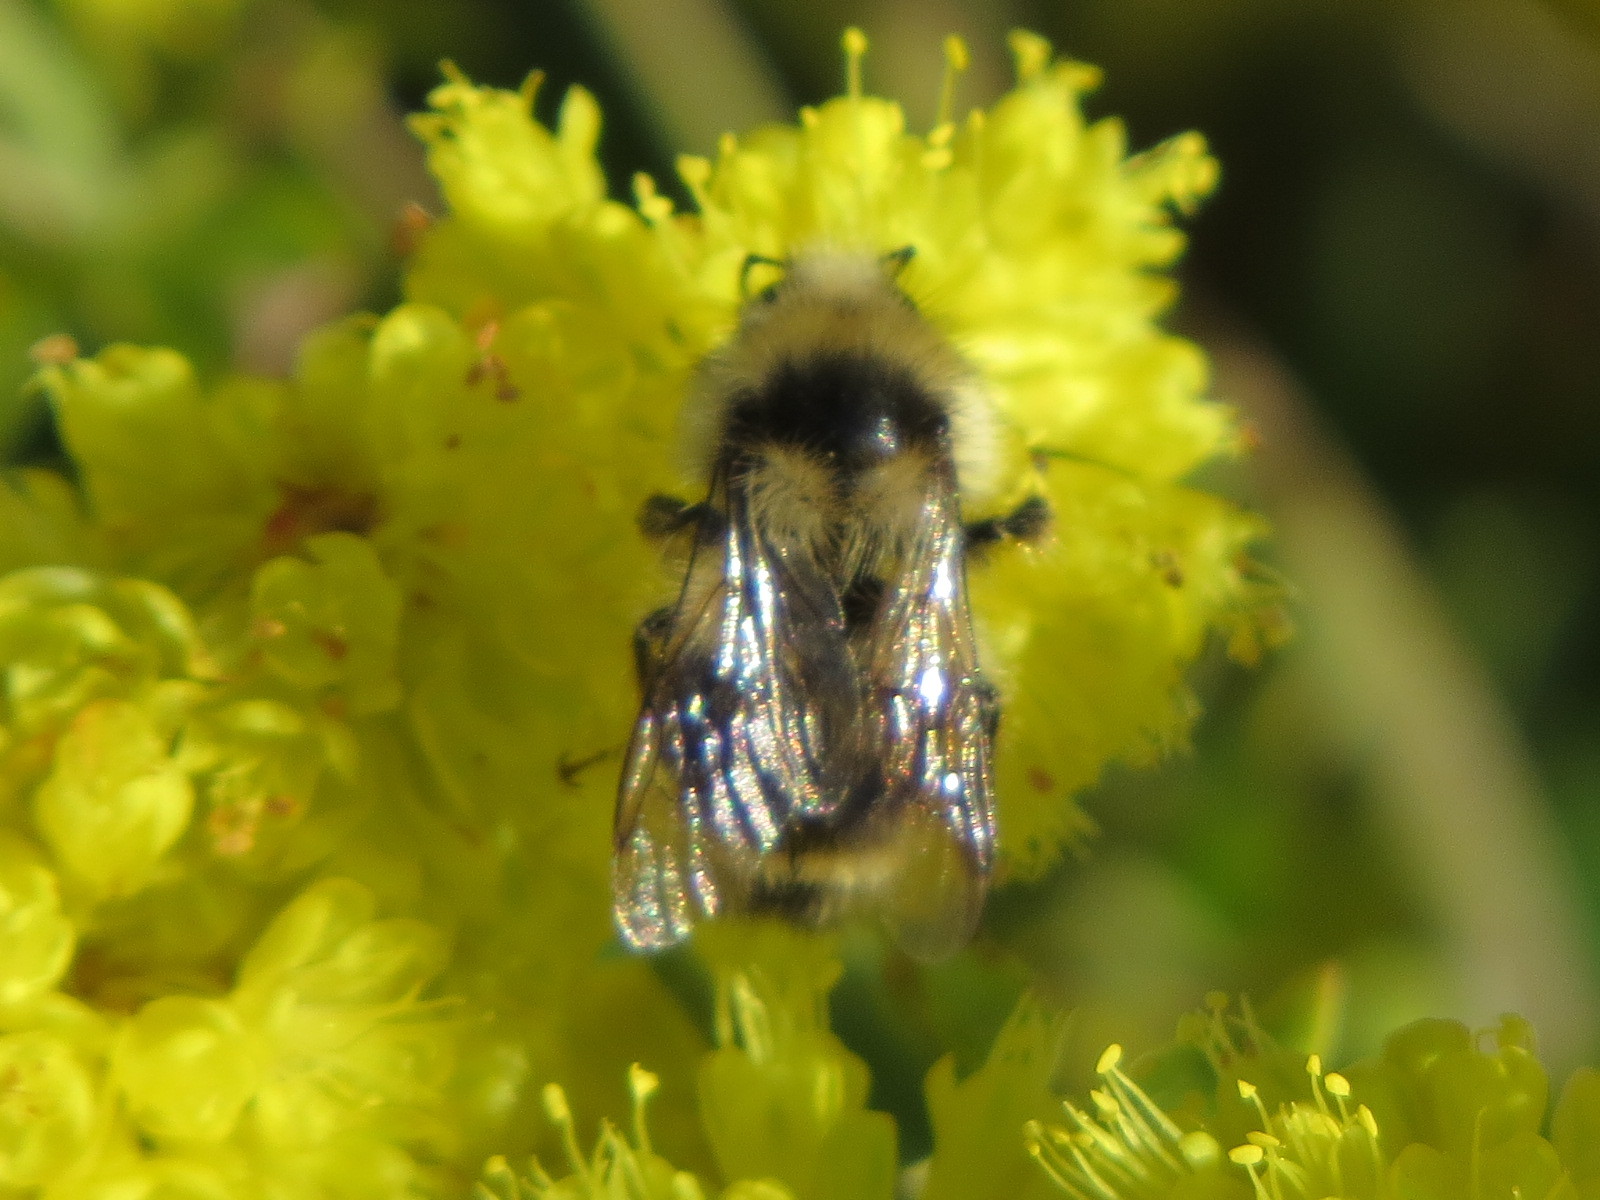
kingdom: Animalia
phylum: Arthropoda
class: Insecta
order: Hymenoptera
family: Apidae
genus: Bombus
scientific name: Bombus vancouverensis
